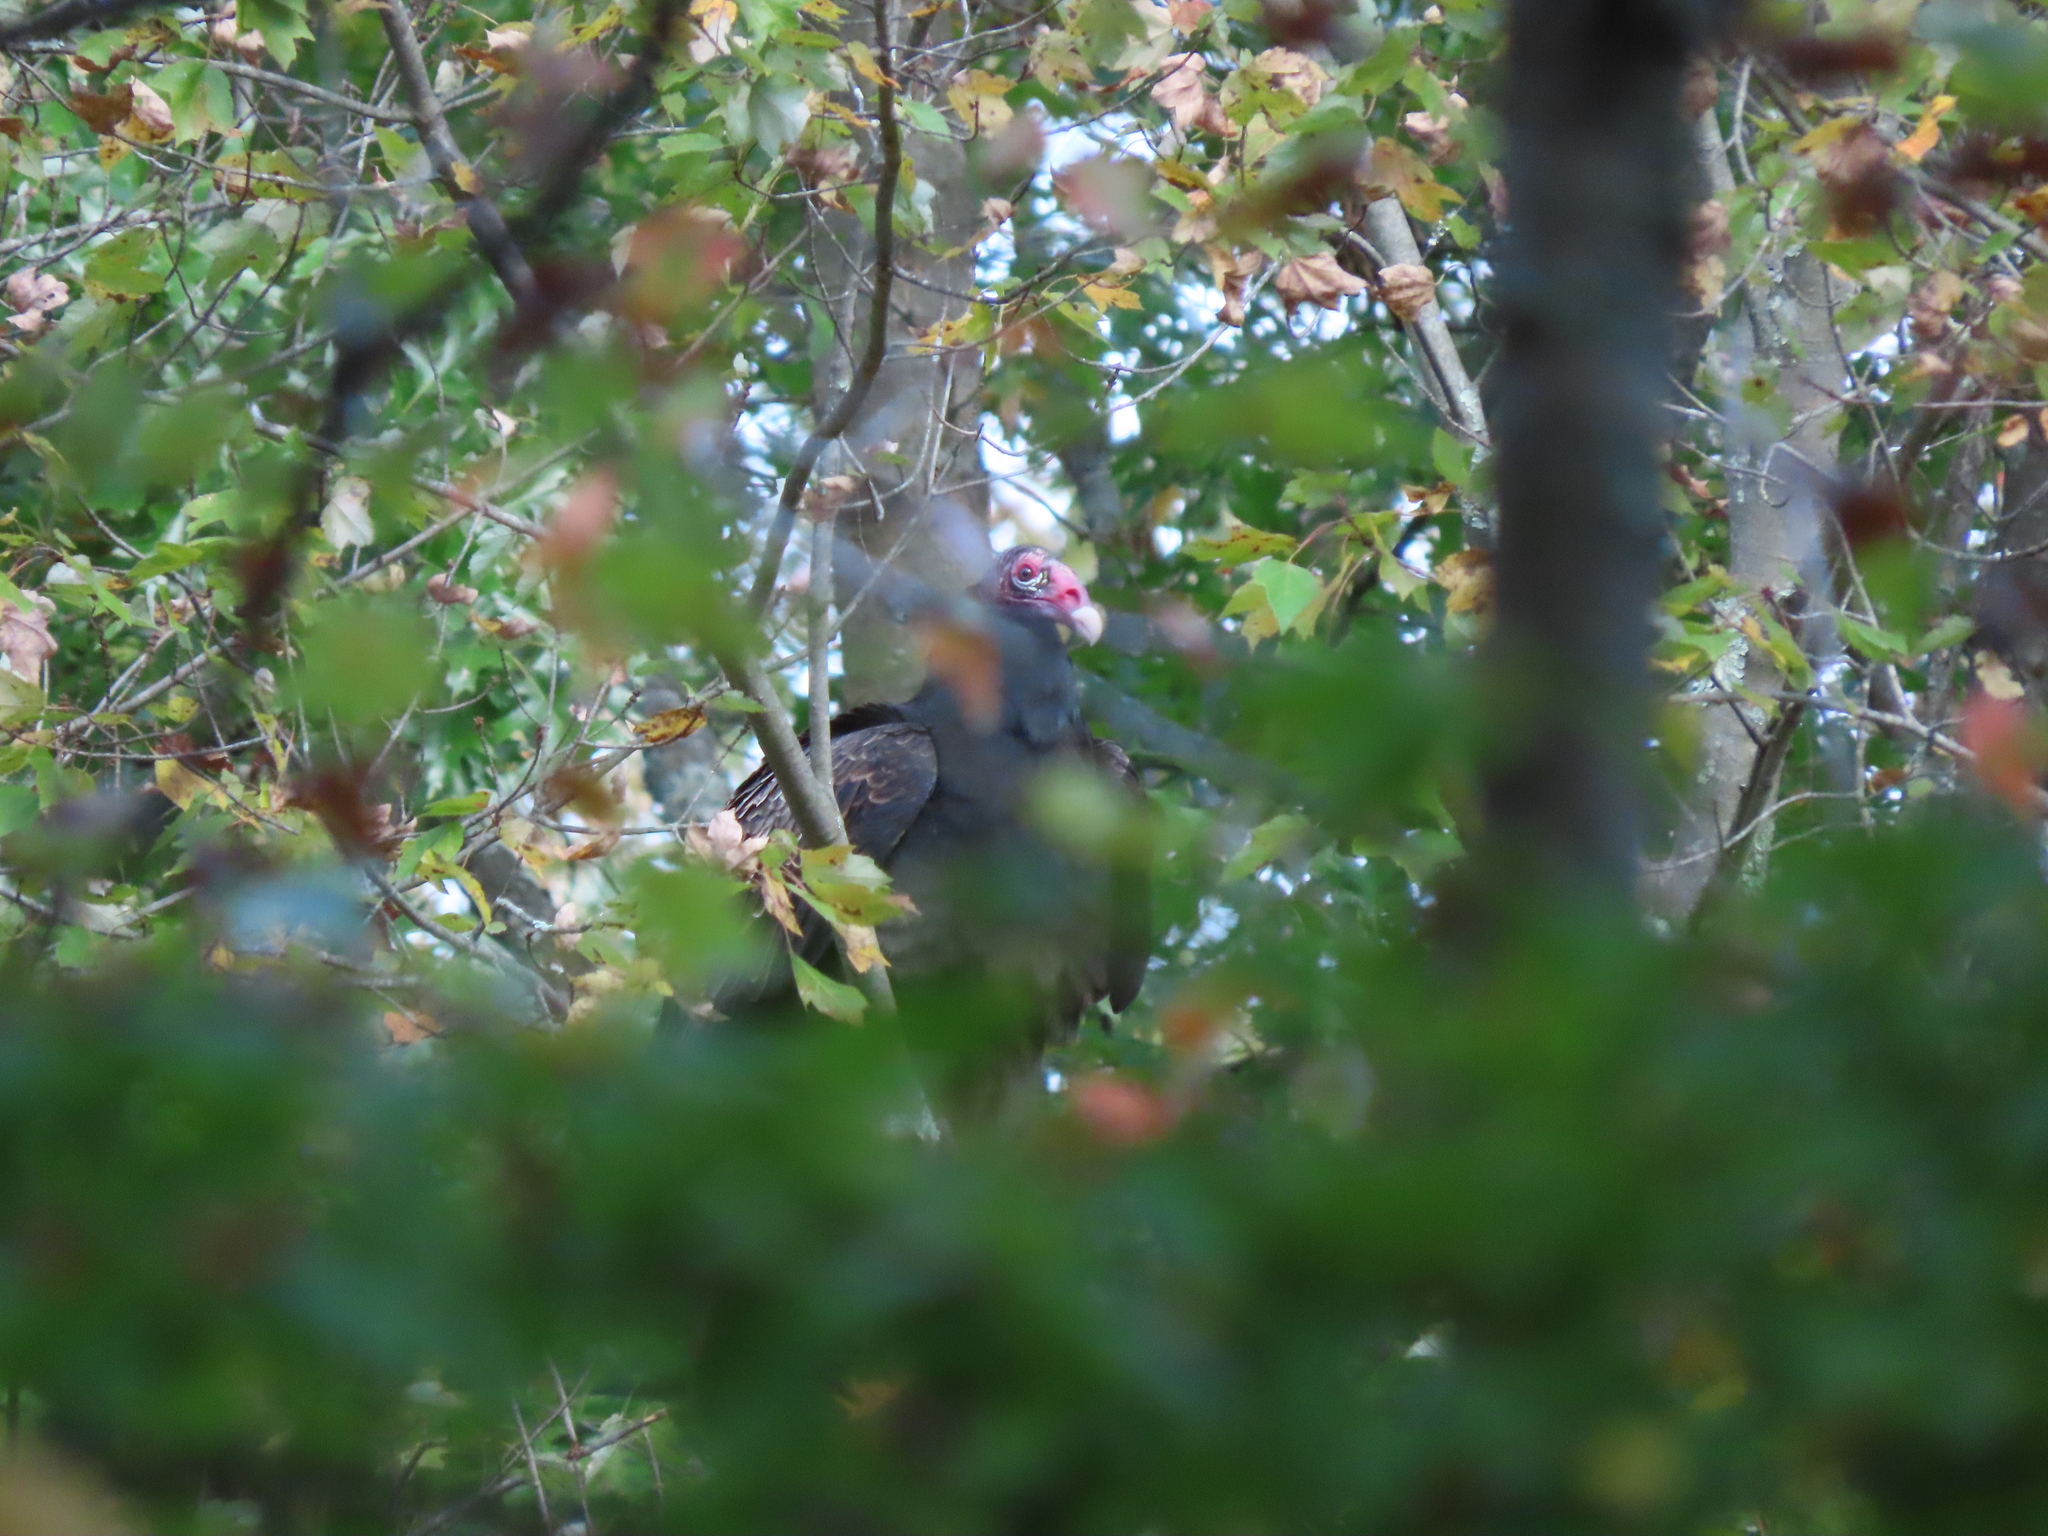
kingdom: Animalia
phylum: Chordata
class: Aves
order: Accipitriformes
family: Cathartidae
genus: Cathartes
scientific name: Cathartes aura
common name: Turkey vulture
